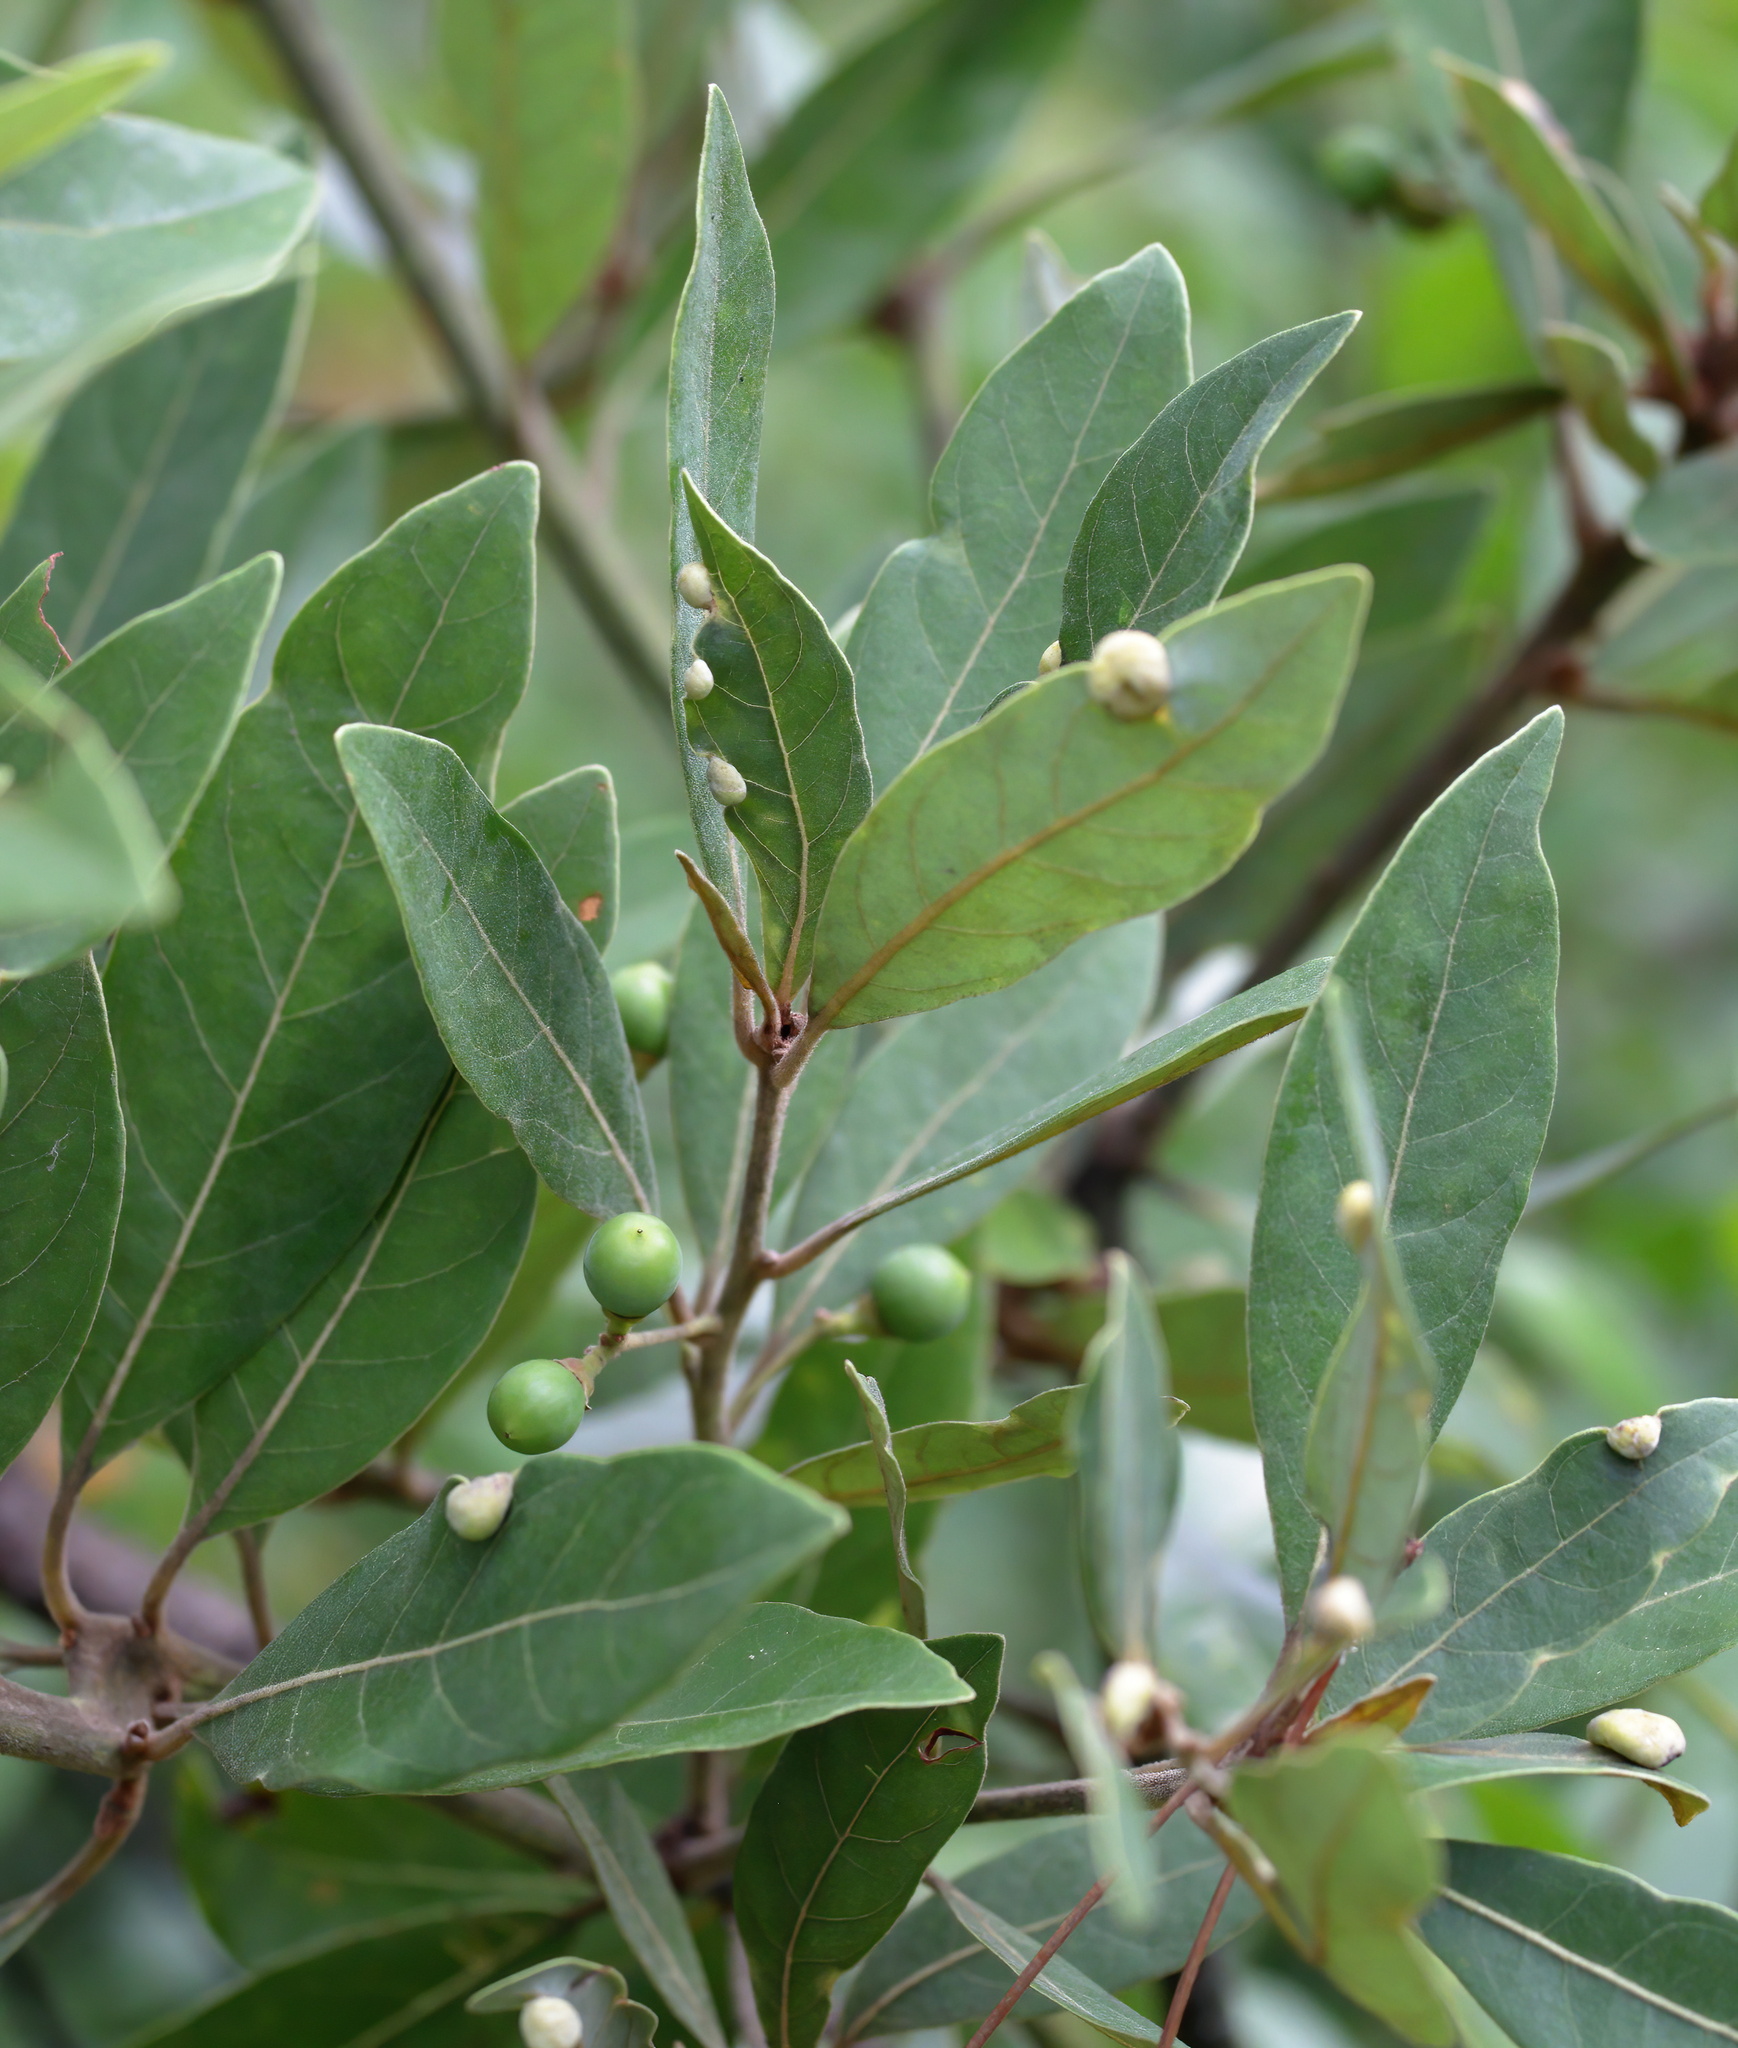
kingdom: Plantae
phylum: Tracheophyta
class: Magnoliopsida
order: Laurales
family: Lauraceae
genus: Persea
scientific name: Persea palustris
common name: Swampbay
